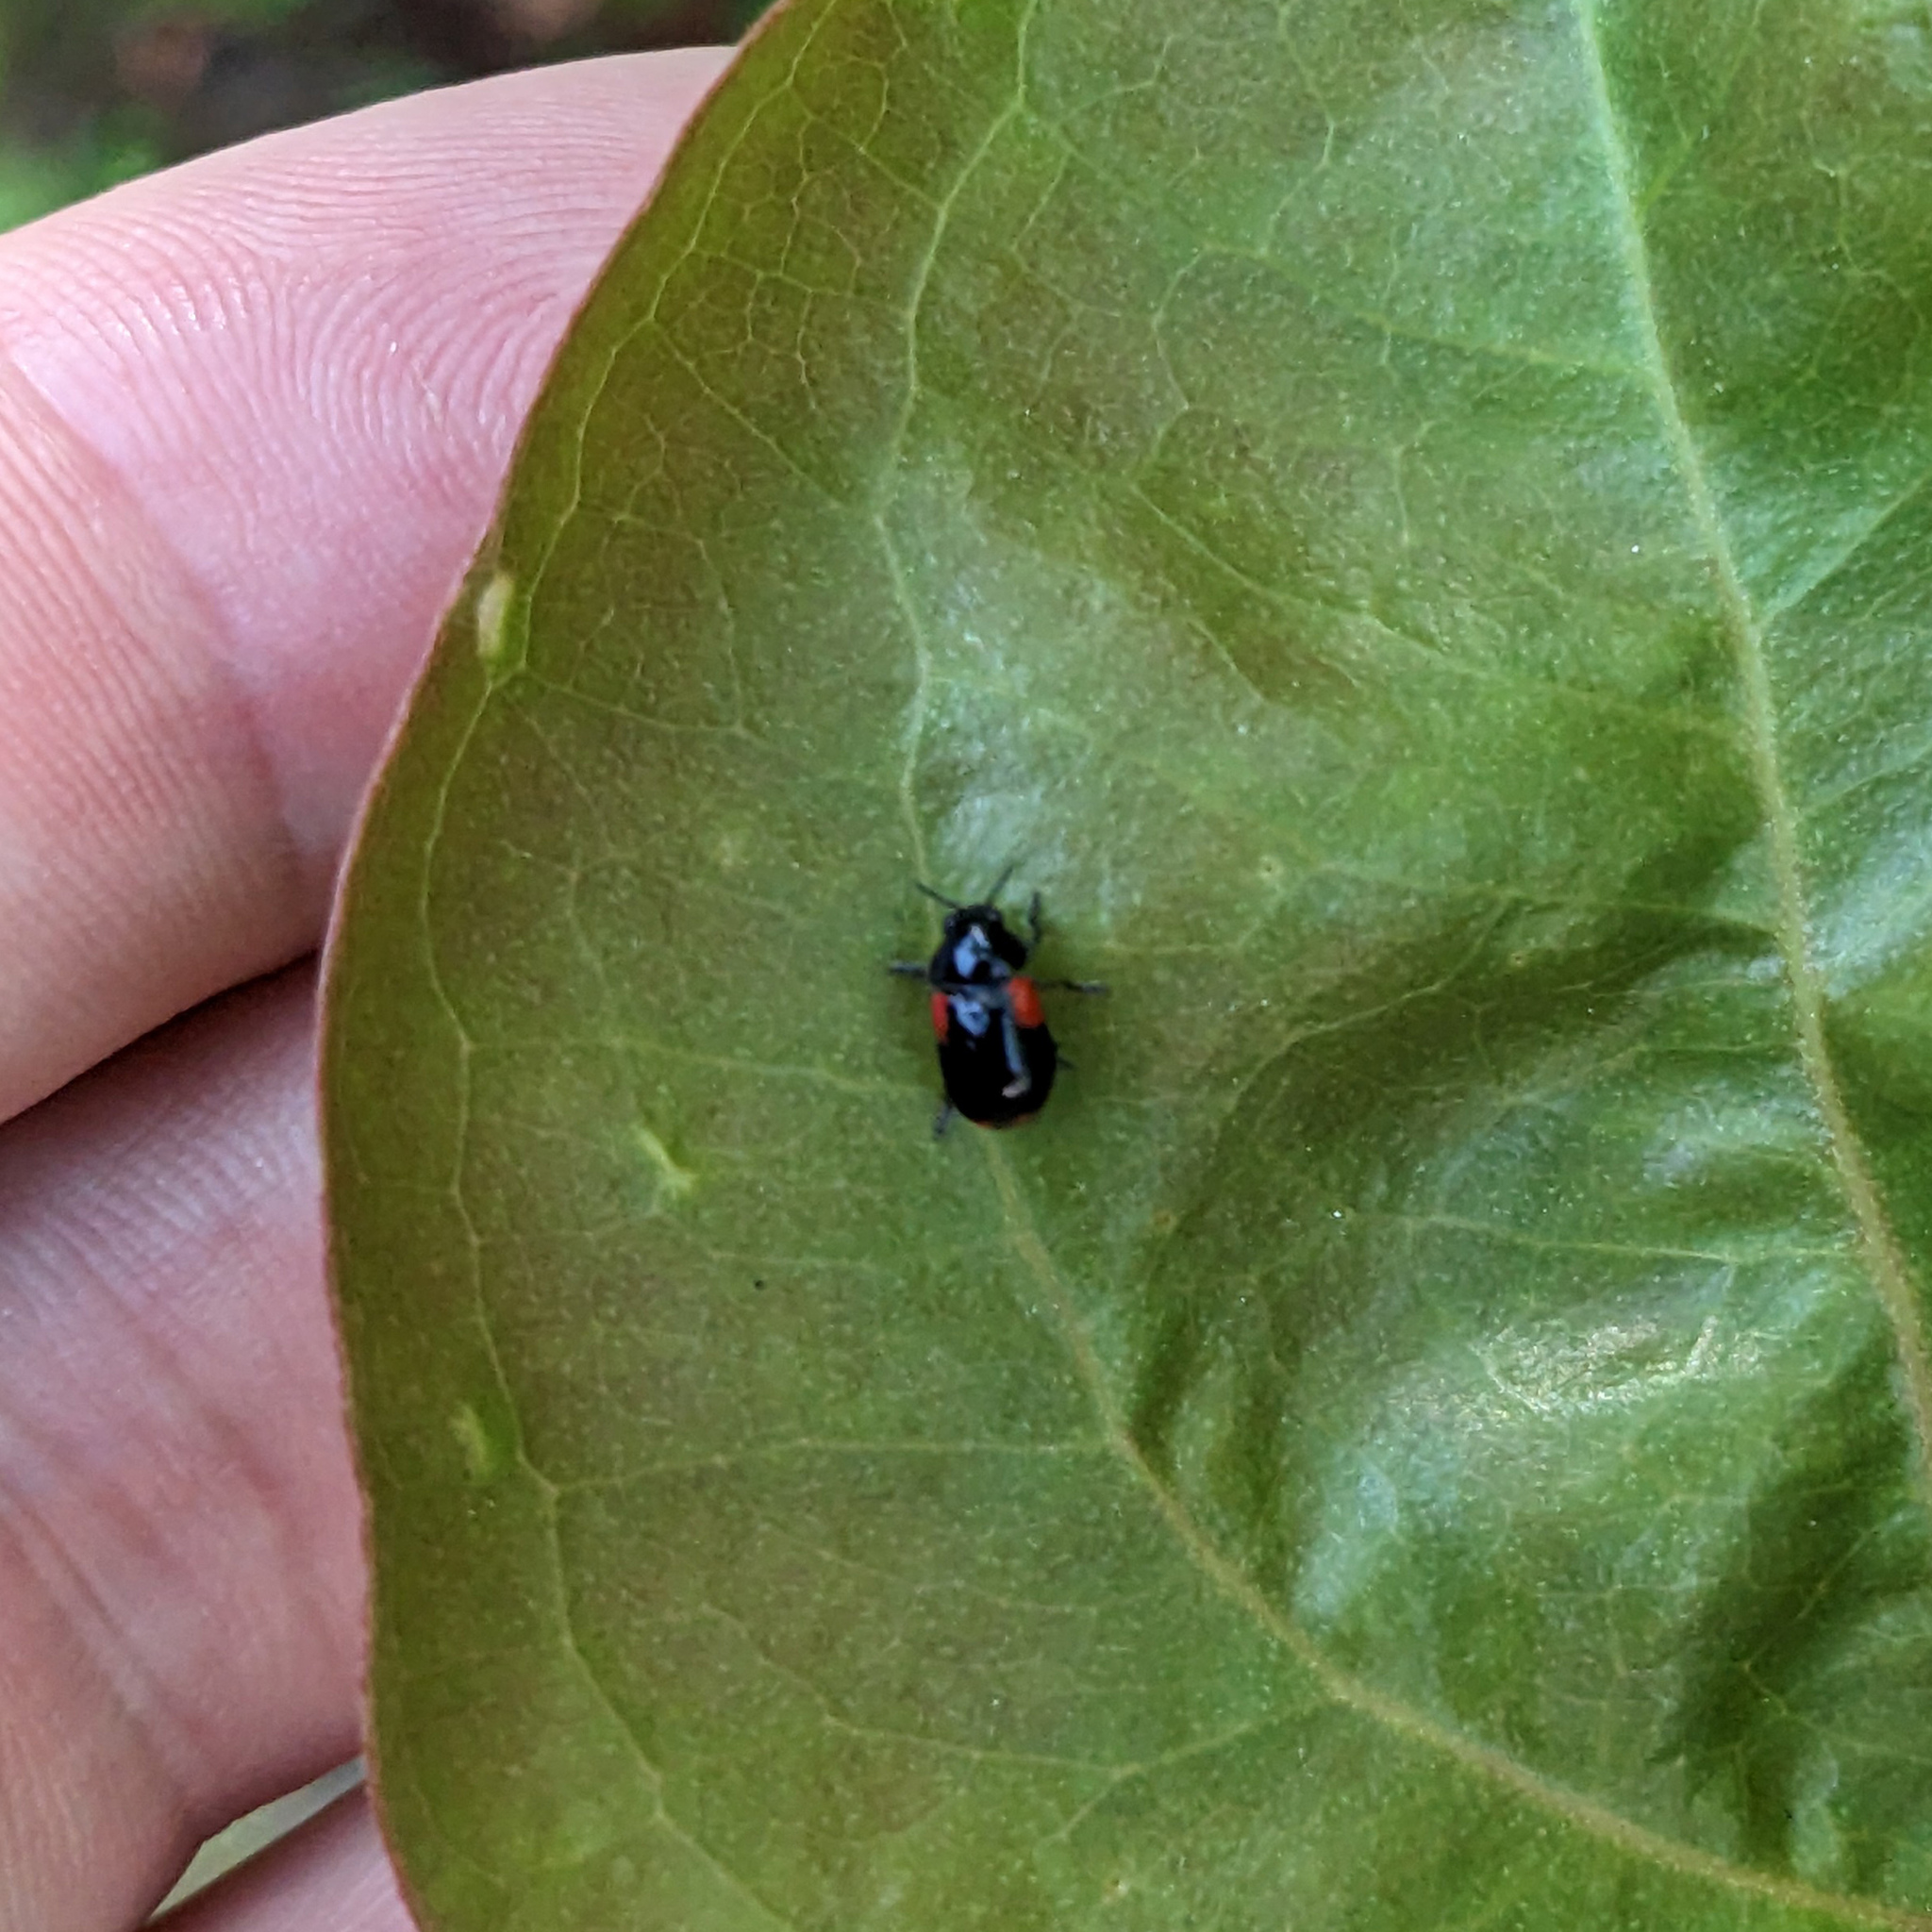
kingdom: Animalia
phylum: Arthropoda
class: Insecta
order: Coleoptera
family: Chrysomelidae
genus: Babia
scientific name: Babia quadriguttata
